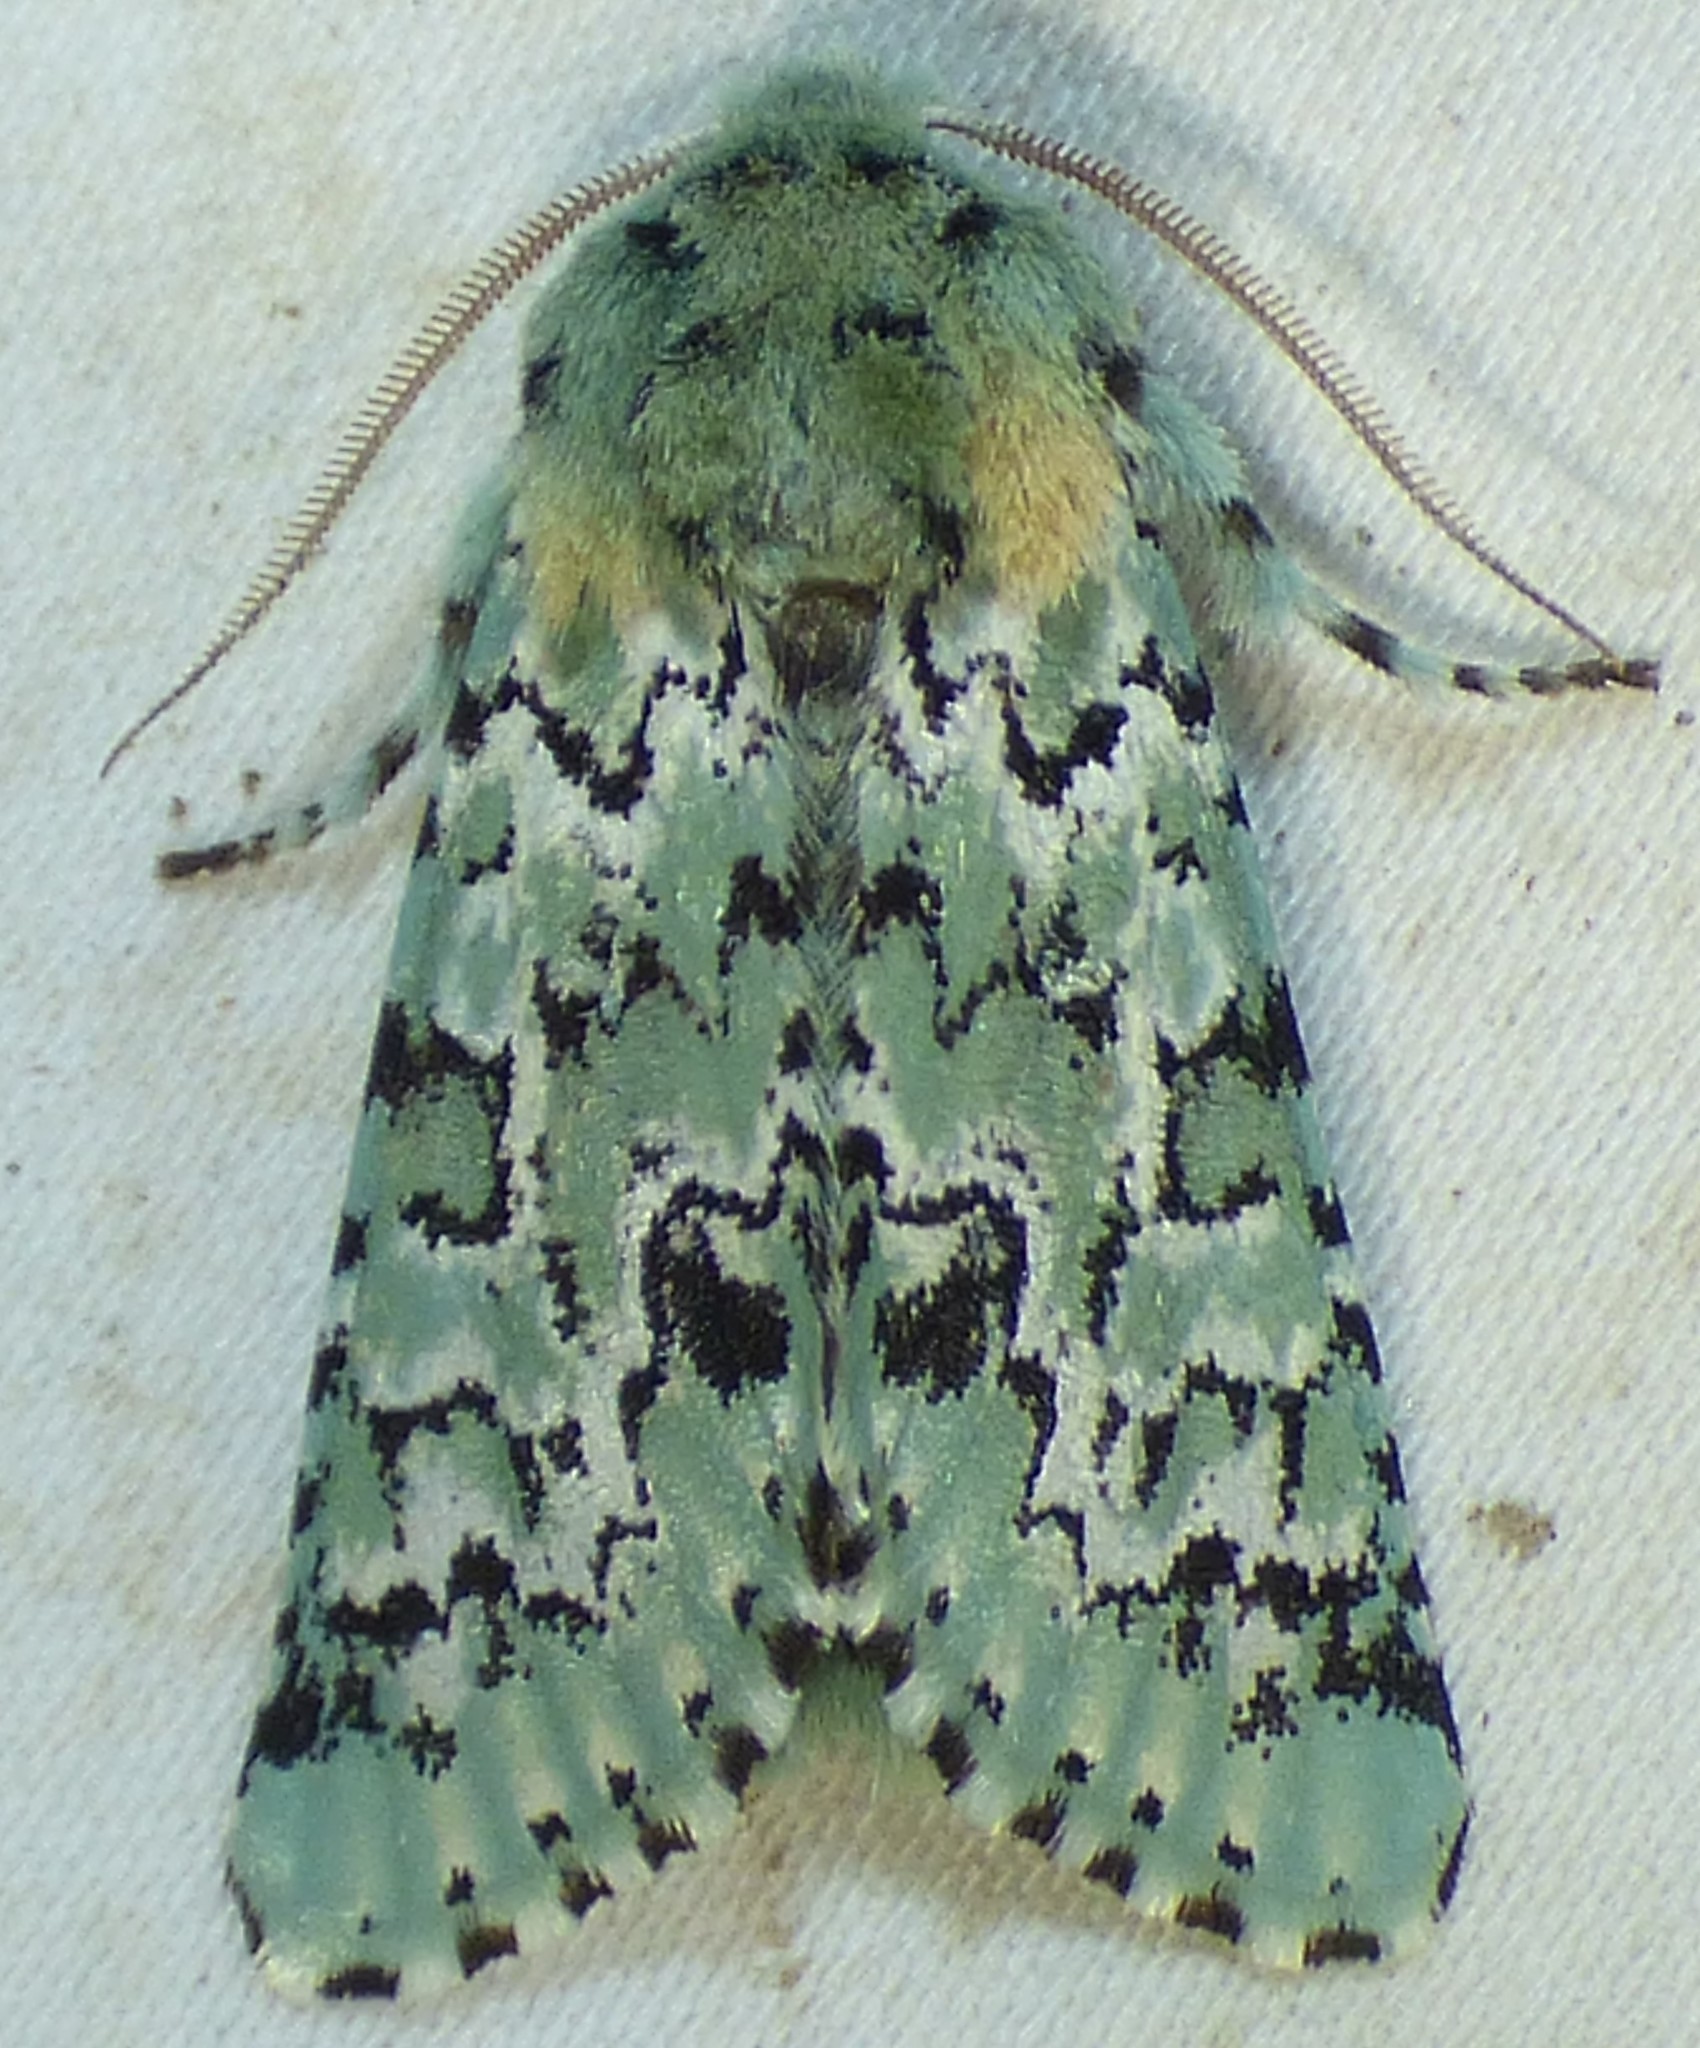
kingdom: Animalia
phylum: Arthropoda
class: Insecta
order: Lepidoptera
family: Noctuidae
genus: Feralia
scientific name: Feralia major
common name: Major sallow
